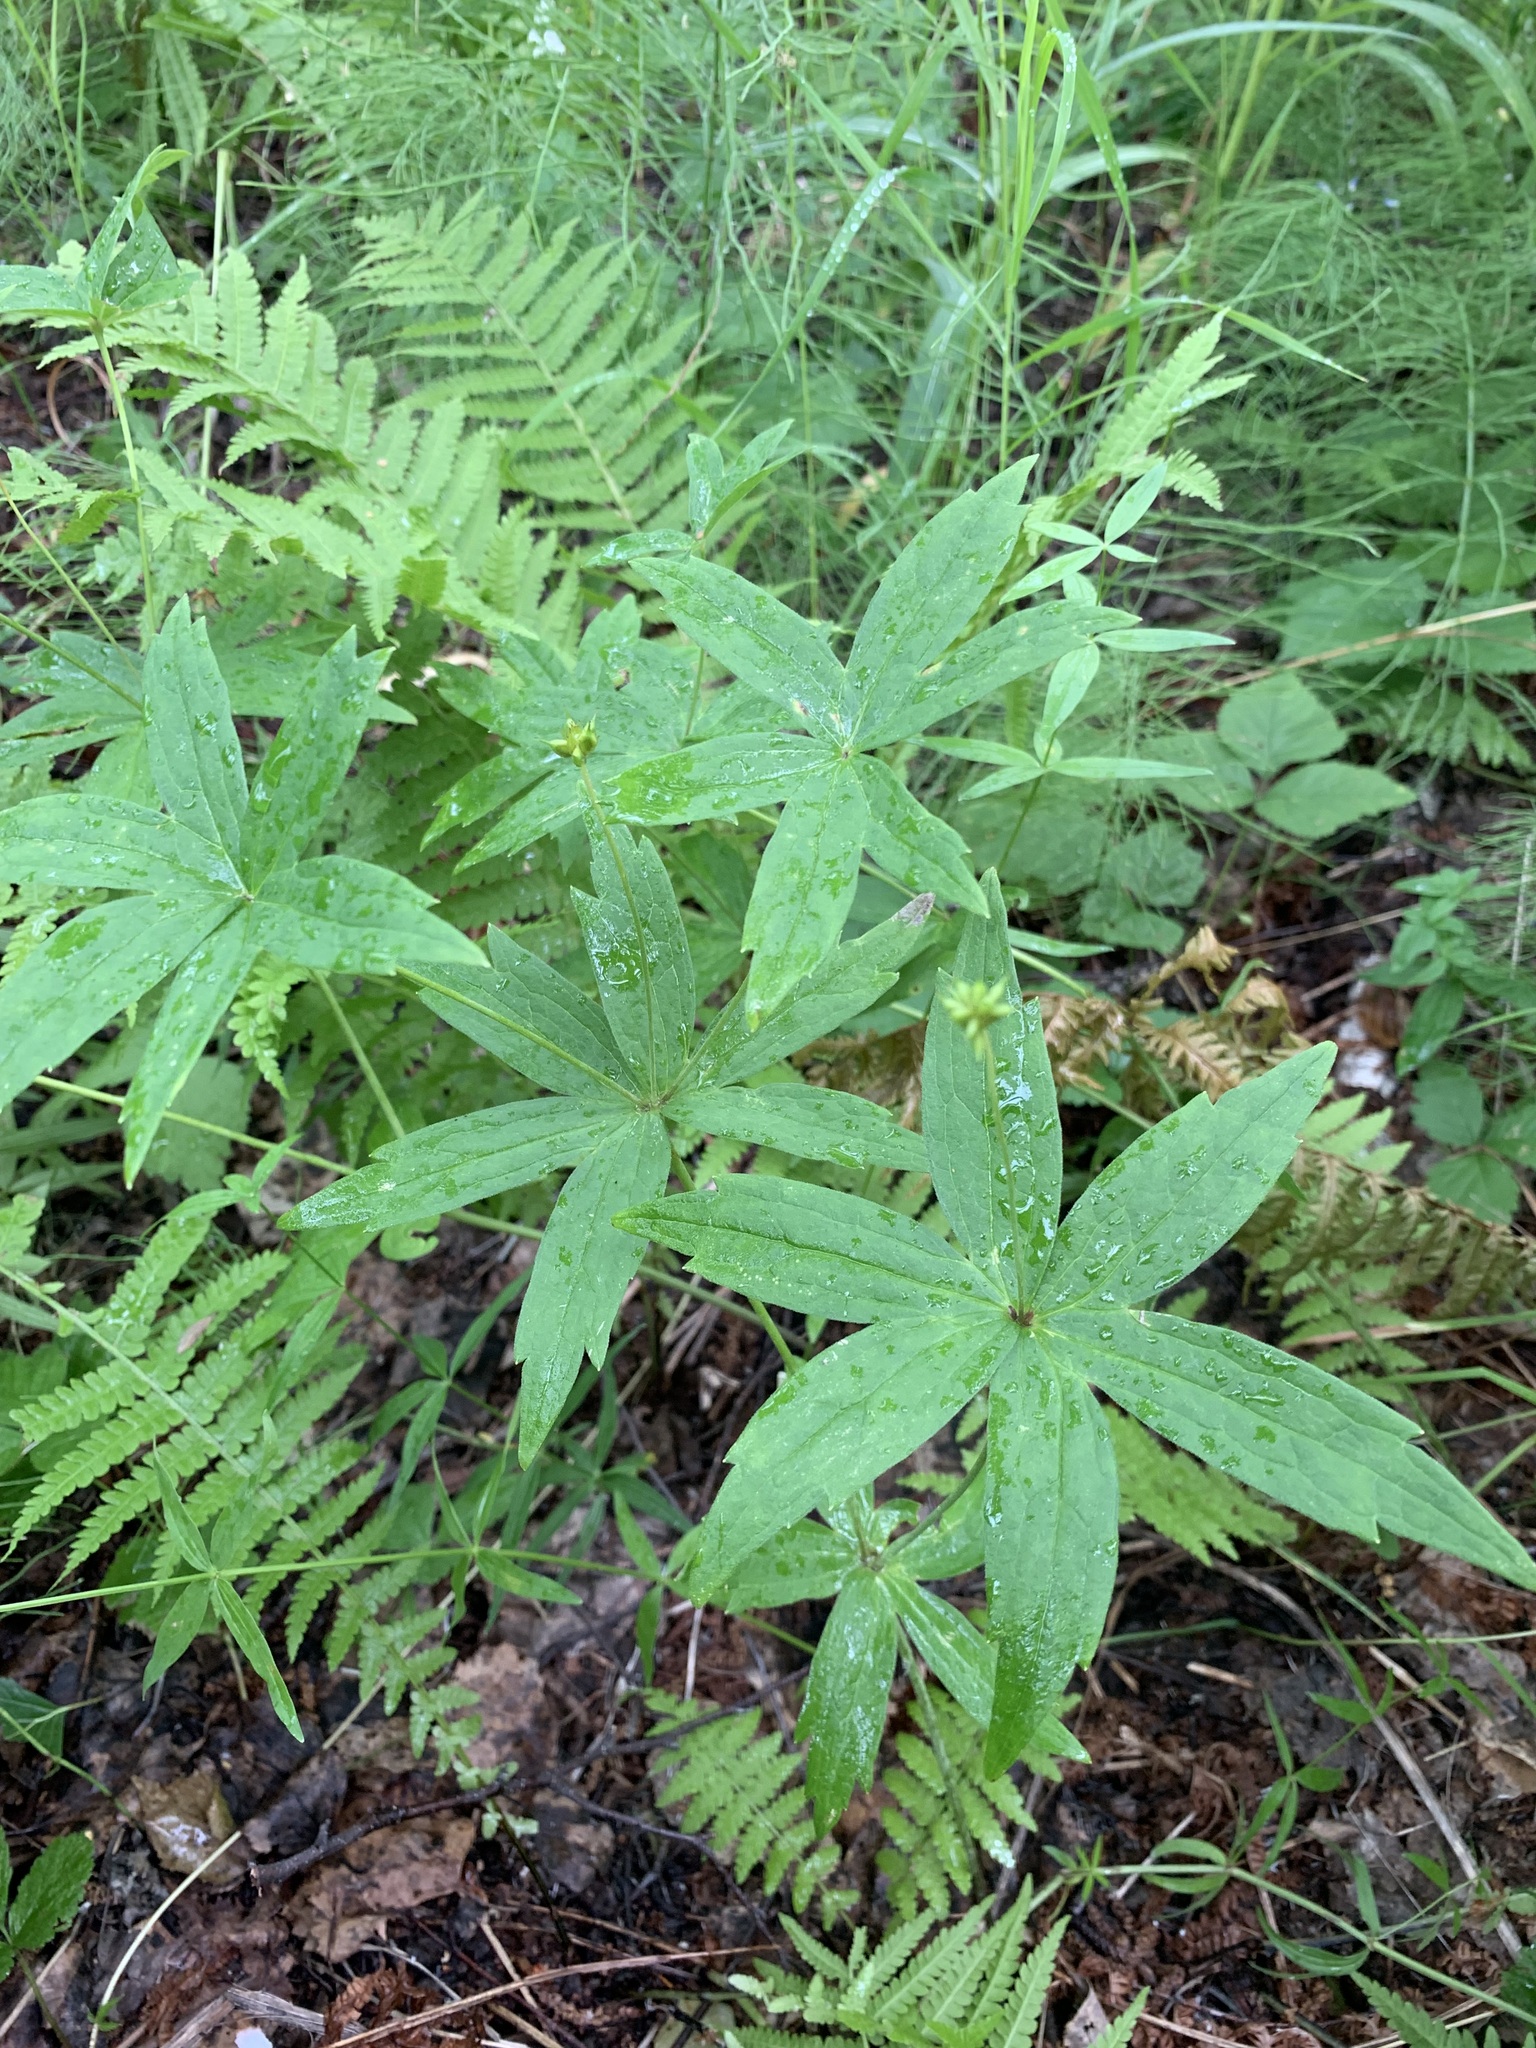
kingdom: Plantae
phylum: Tracheophyta
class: Magnoliopsida
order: Ranunculales
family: Ranunculaceae
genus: Anemonastrum
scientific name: Anemonastrum dichotomum
